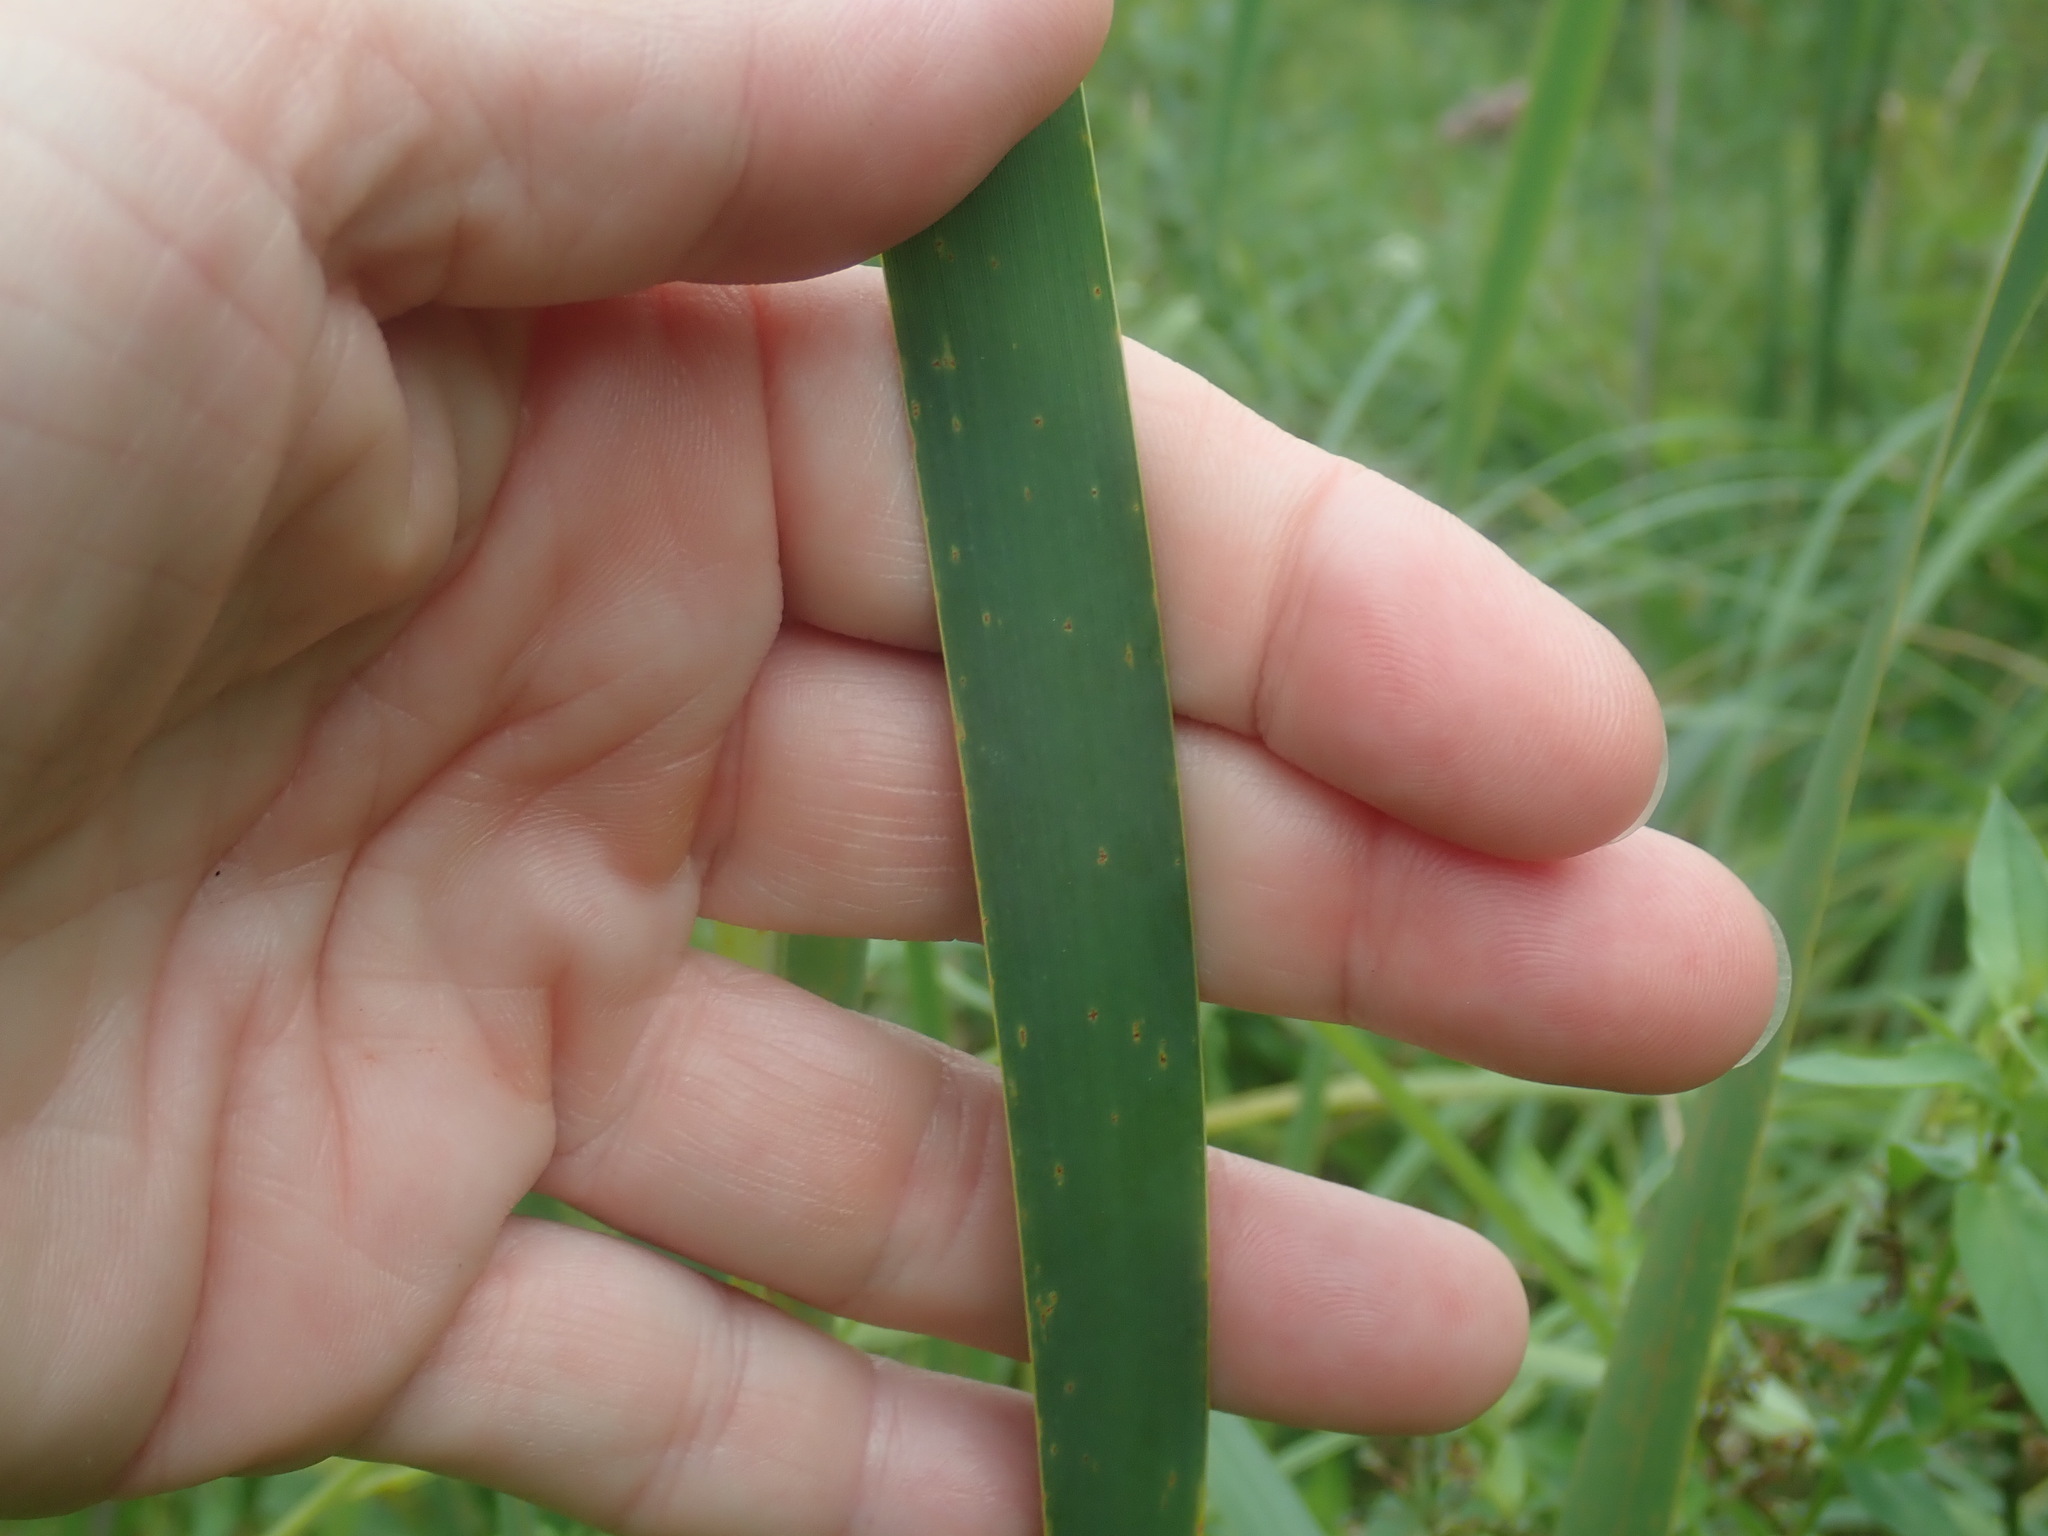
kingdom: Plantae
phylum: Tracheophyta
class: Liliopsida
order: Poales
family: Typhaceae
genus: Typha
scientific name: Typha latifolia
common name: Broadleaf cattail
